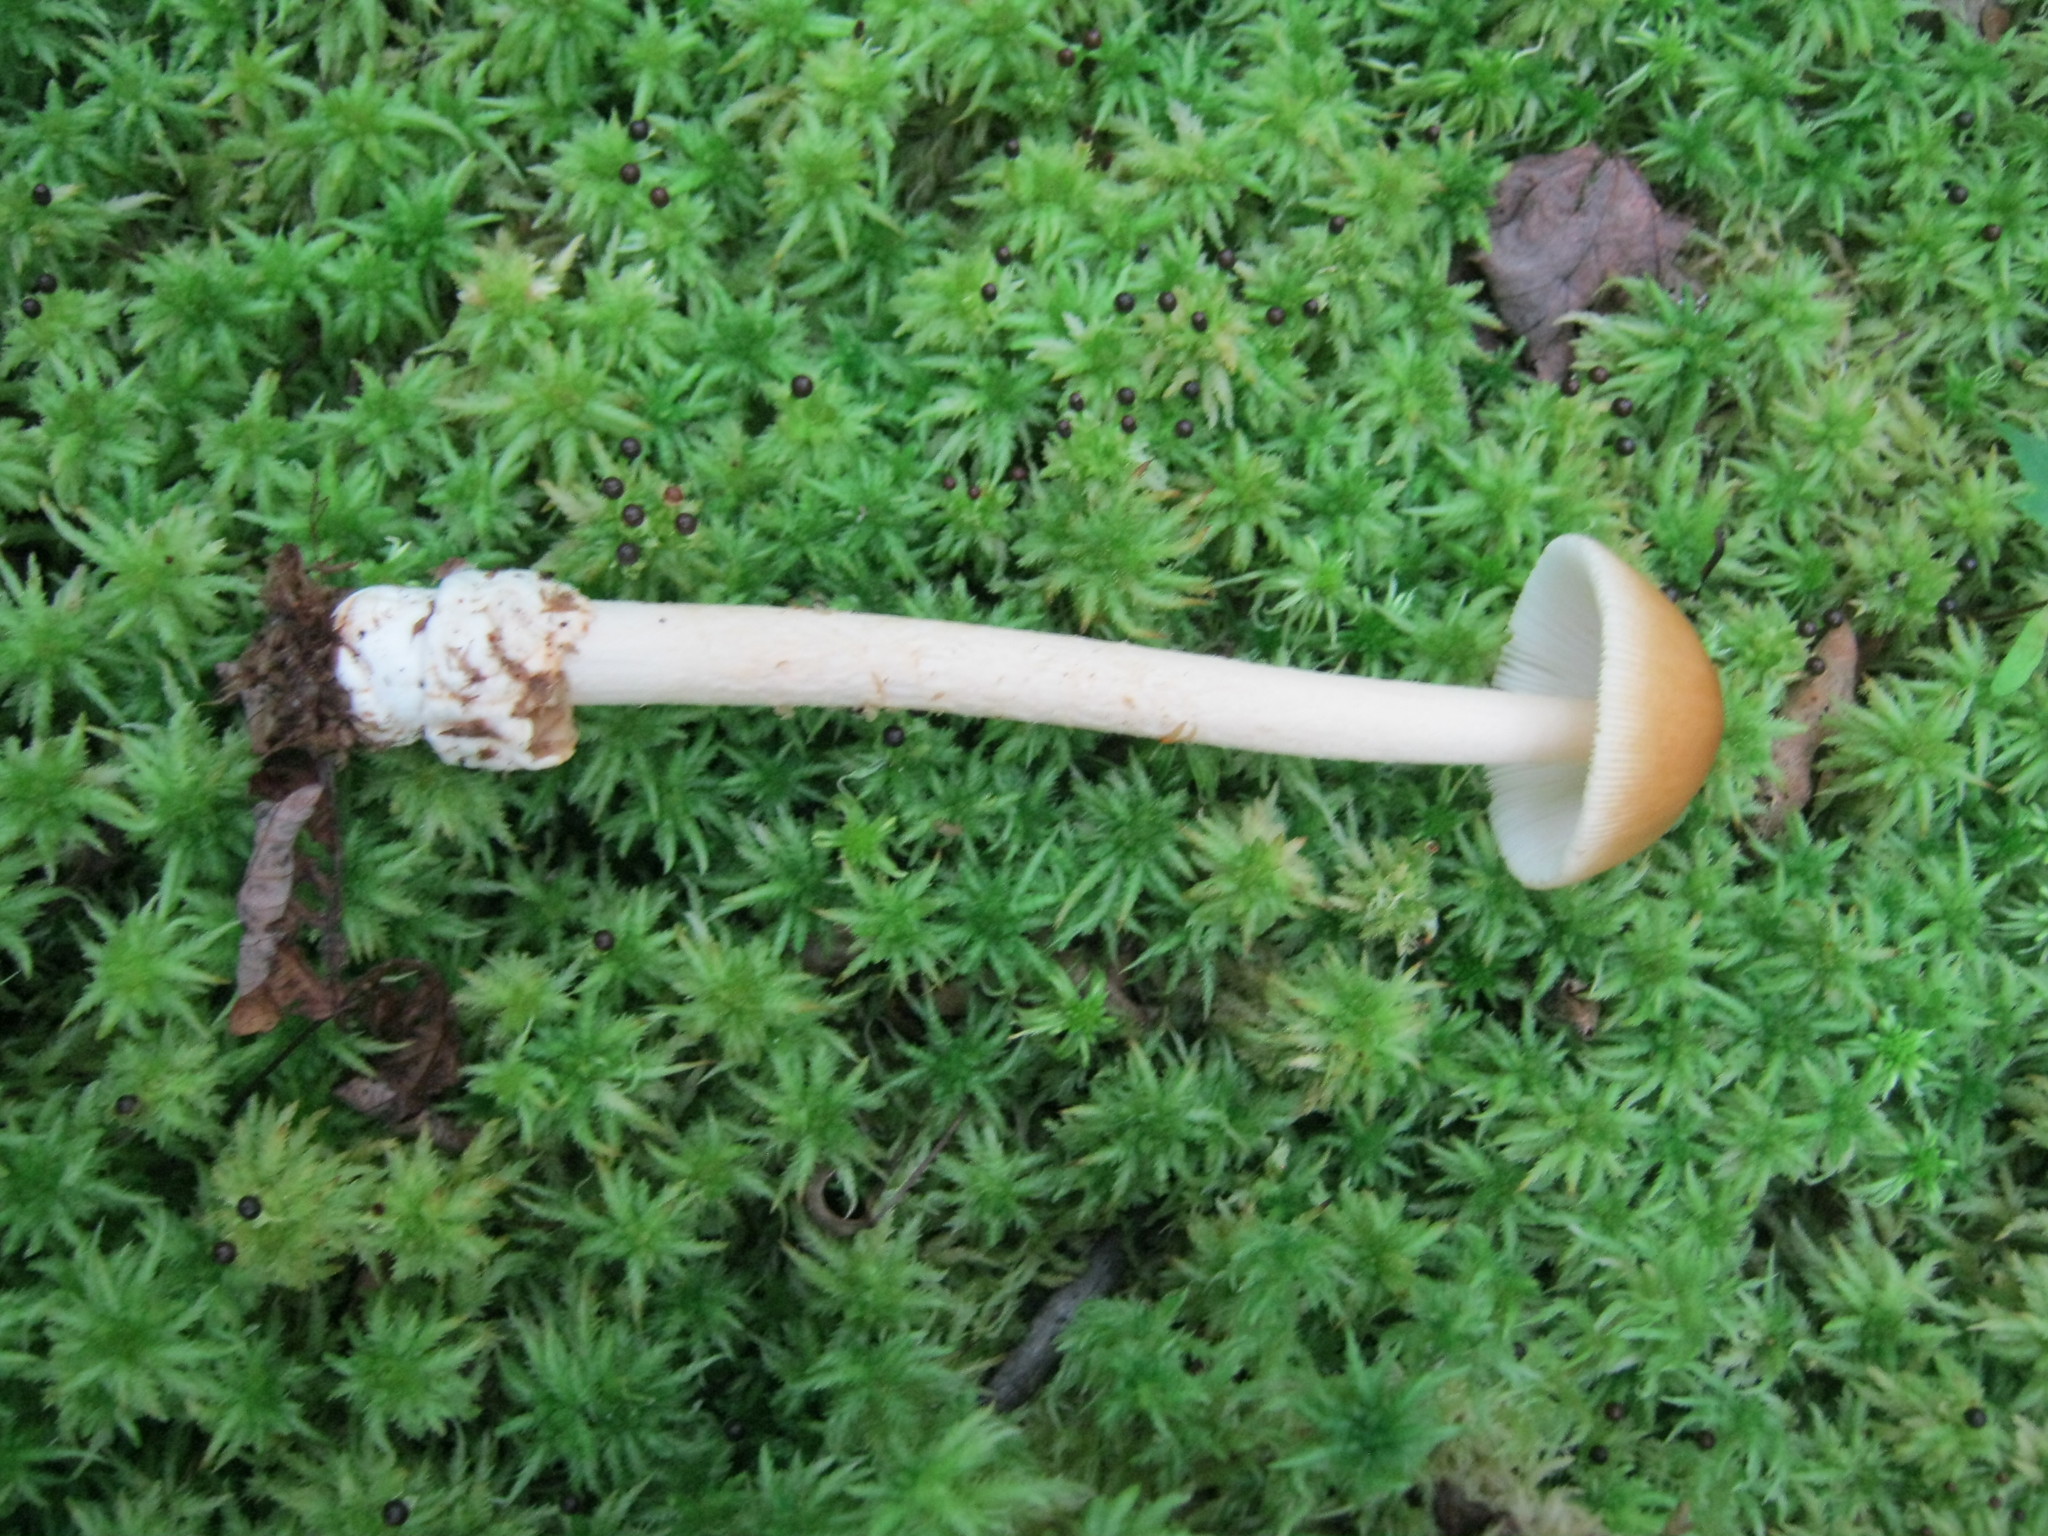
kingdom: Fungi
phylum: Basidiomycota
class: Agaricomycetes
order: Agaricales
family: Amanitaceae
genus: Amanita
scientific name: Amanita fulva
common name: Tawny grisette
